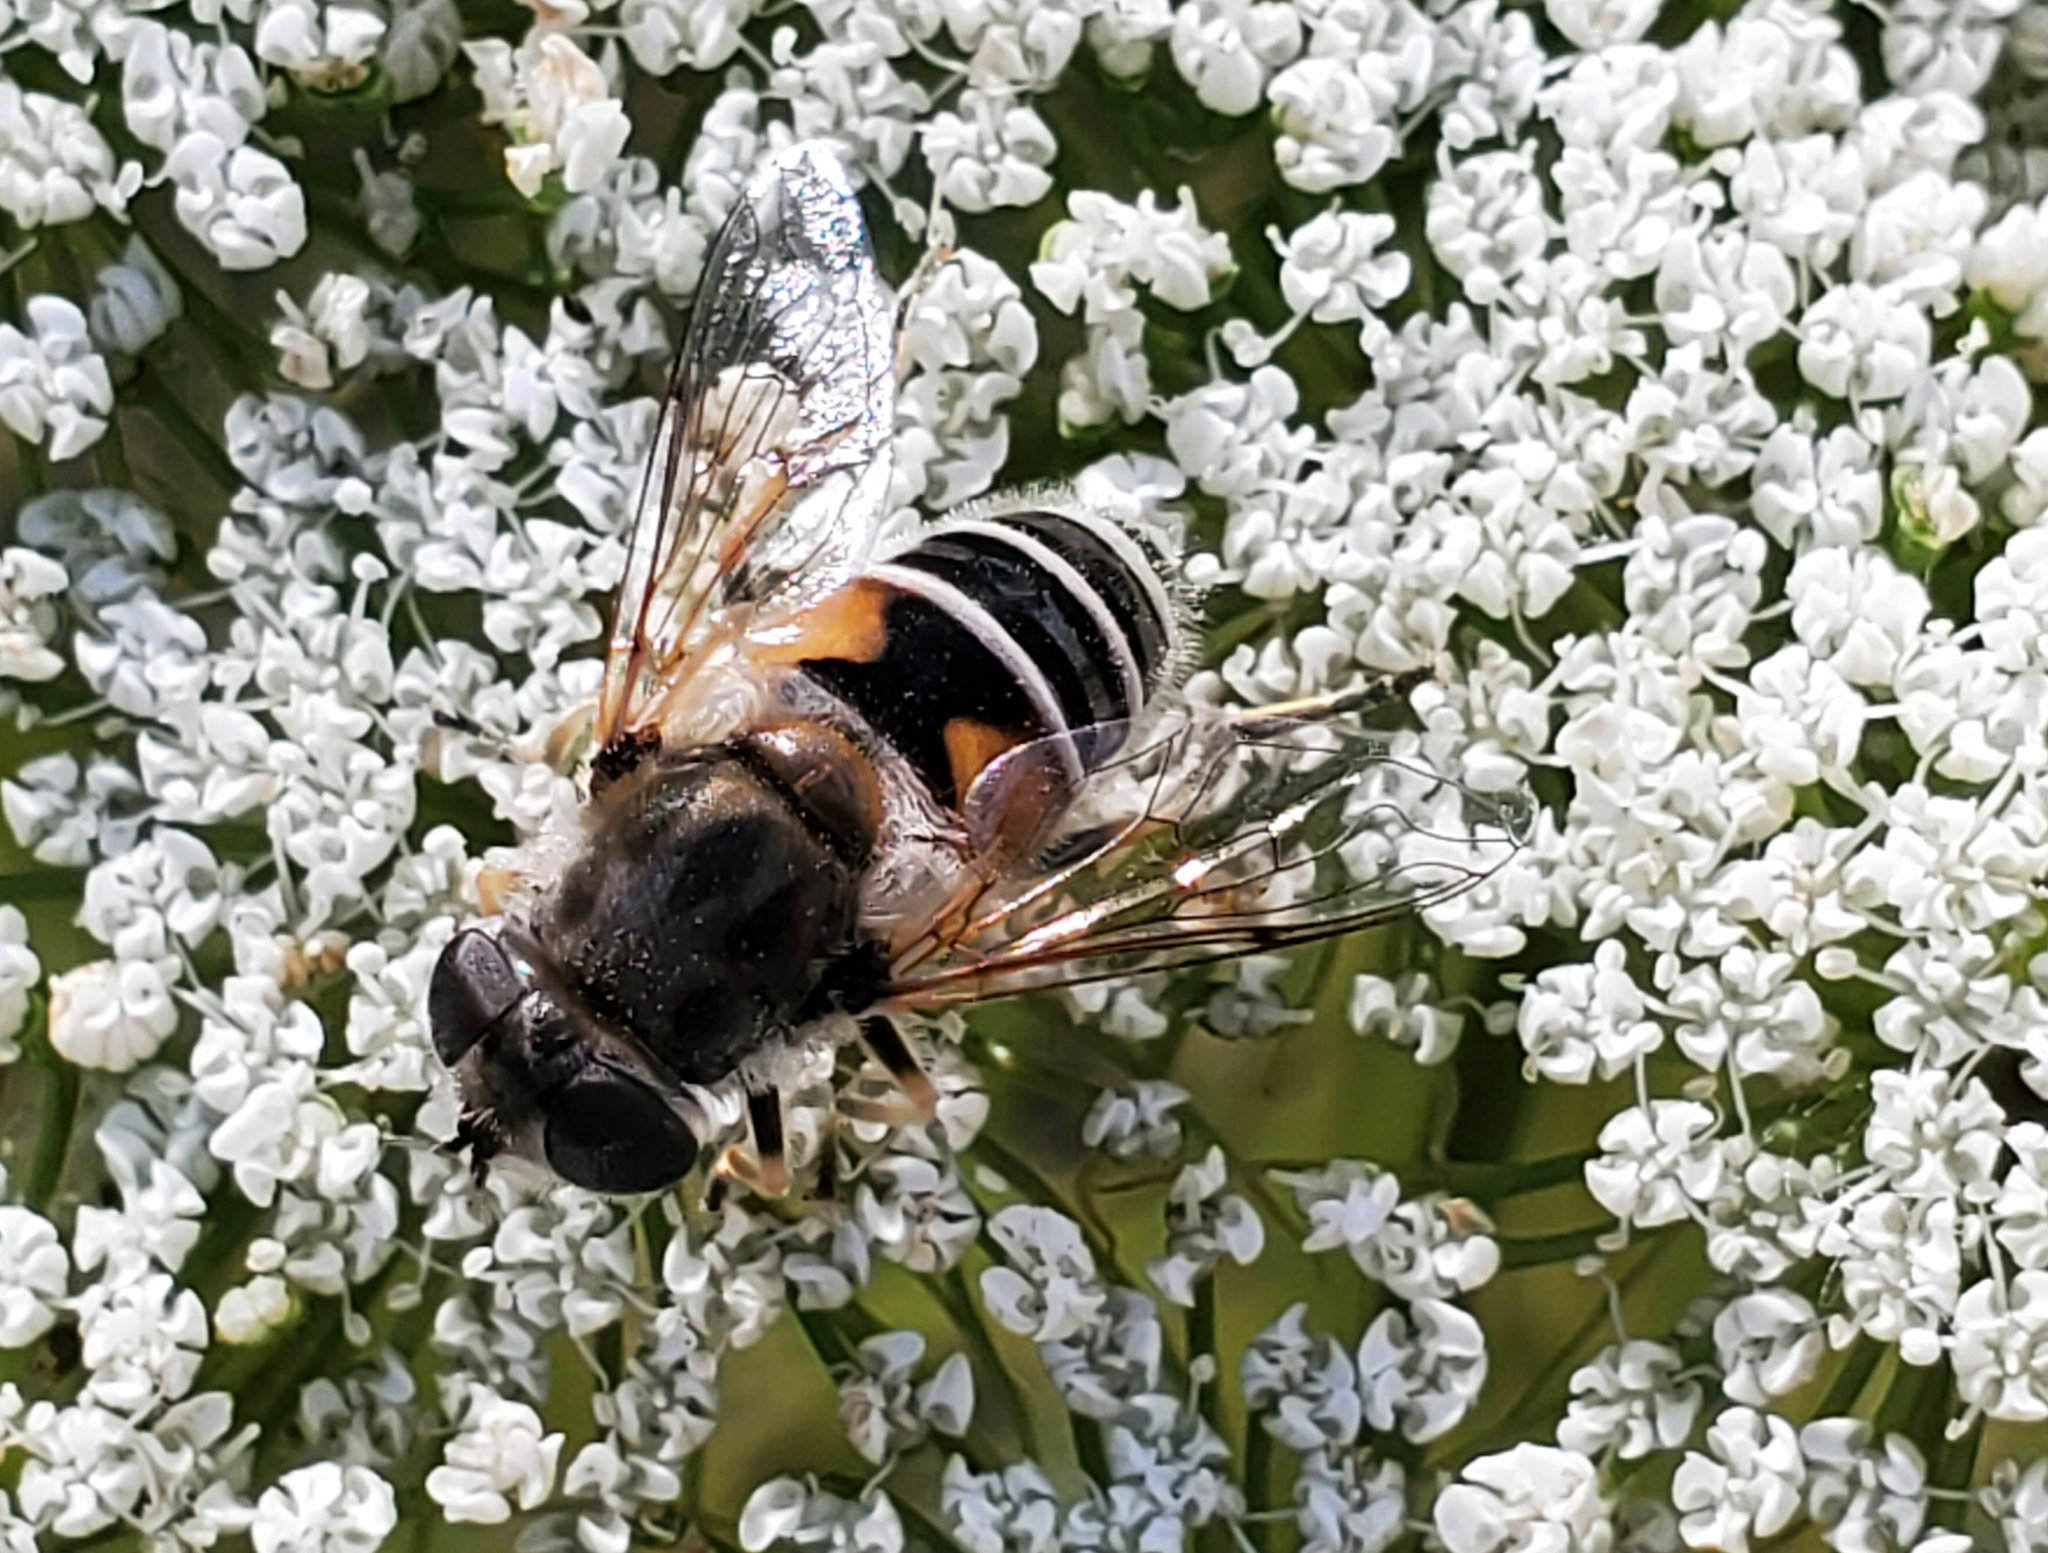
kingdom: Animalia
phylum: Arthropoda
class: Insecta
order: Diptera
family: Syrphidae
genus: Eristalis
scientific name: Eristalis arbustorum
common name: Hover fly
